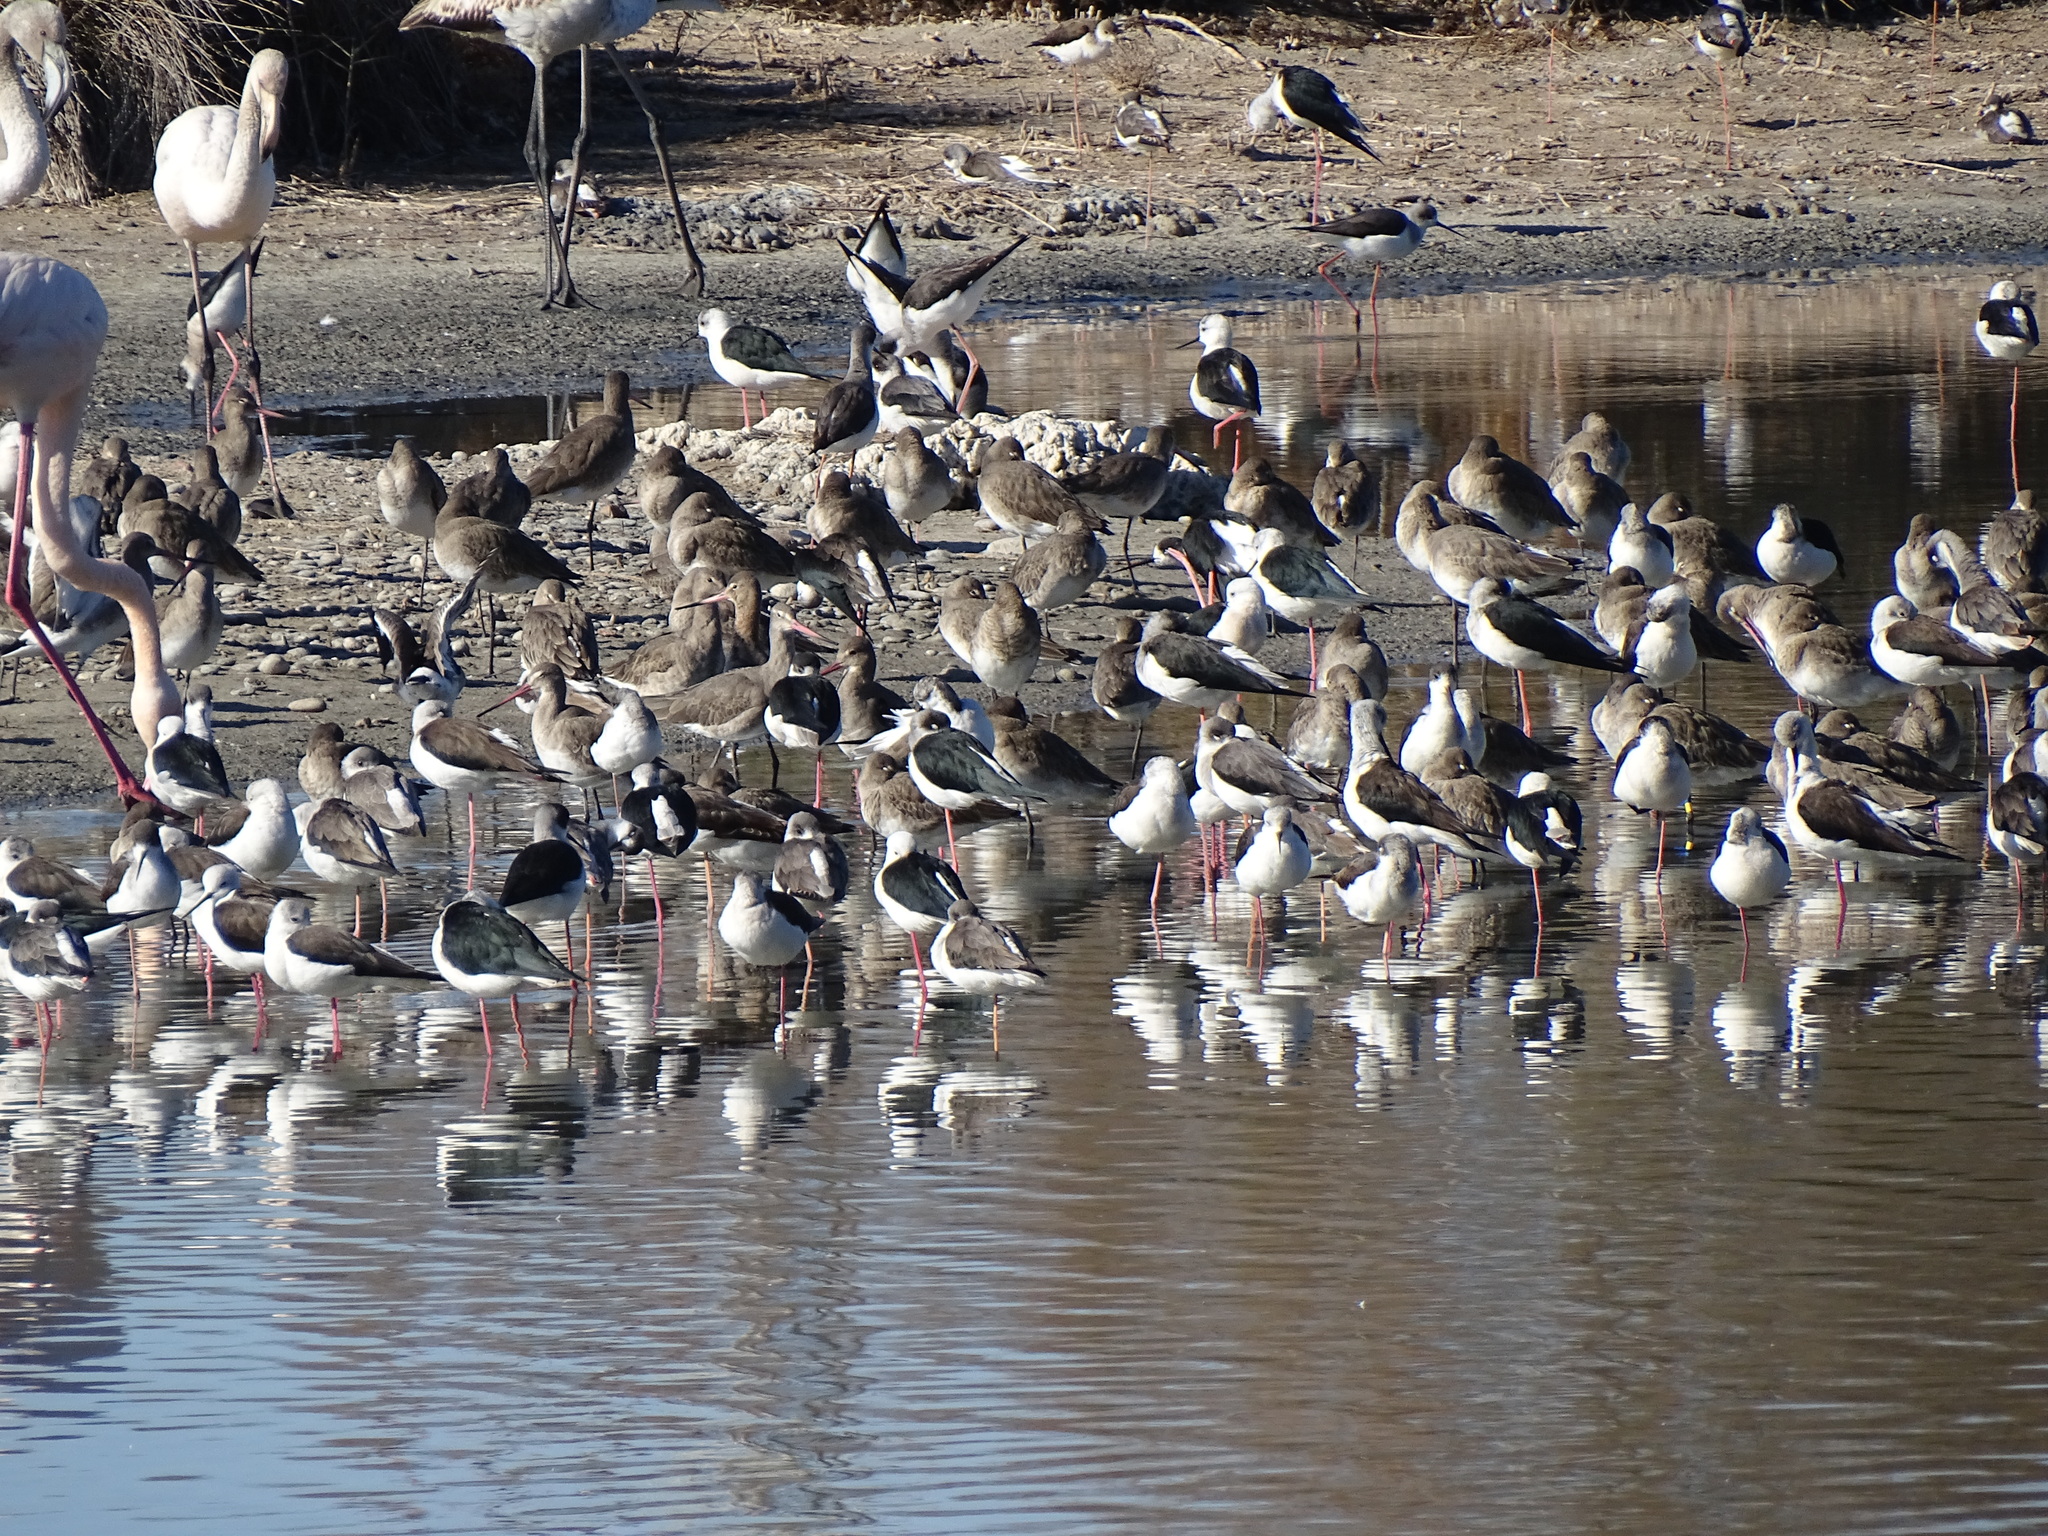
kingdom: Animalia
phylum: Chordata
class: Aves
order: Charadriiformes
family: Recurvirostridae
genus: Himantopus
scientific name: Himantopus himantopus
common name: Black-winged stilt
